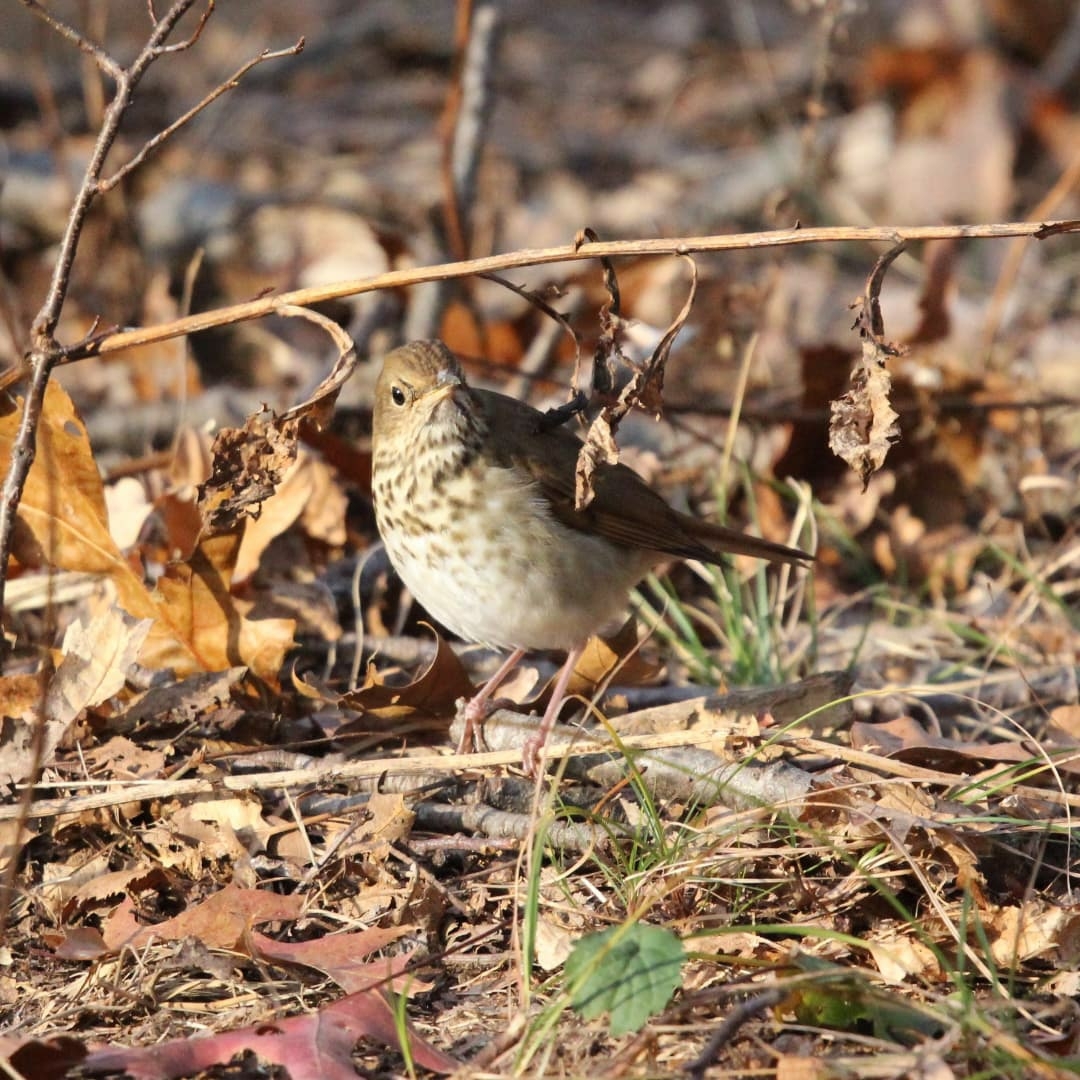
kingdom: Animalia
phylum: Chordata
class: Aves
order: Passeriformes
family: Turdidae
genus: Catharus
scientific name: Catharus guttatus
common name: Hermit thrush
